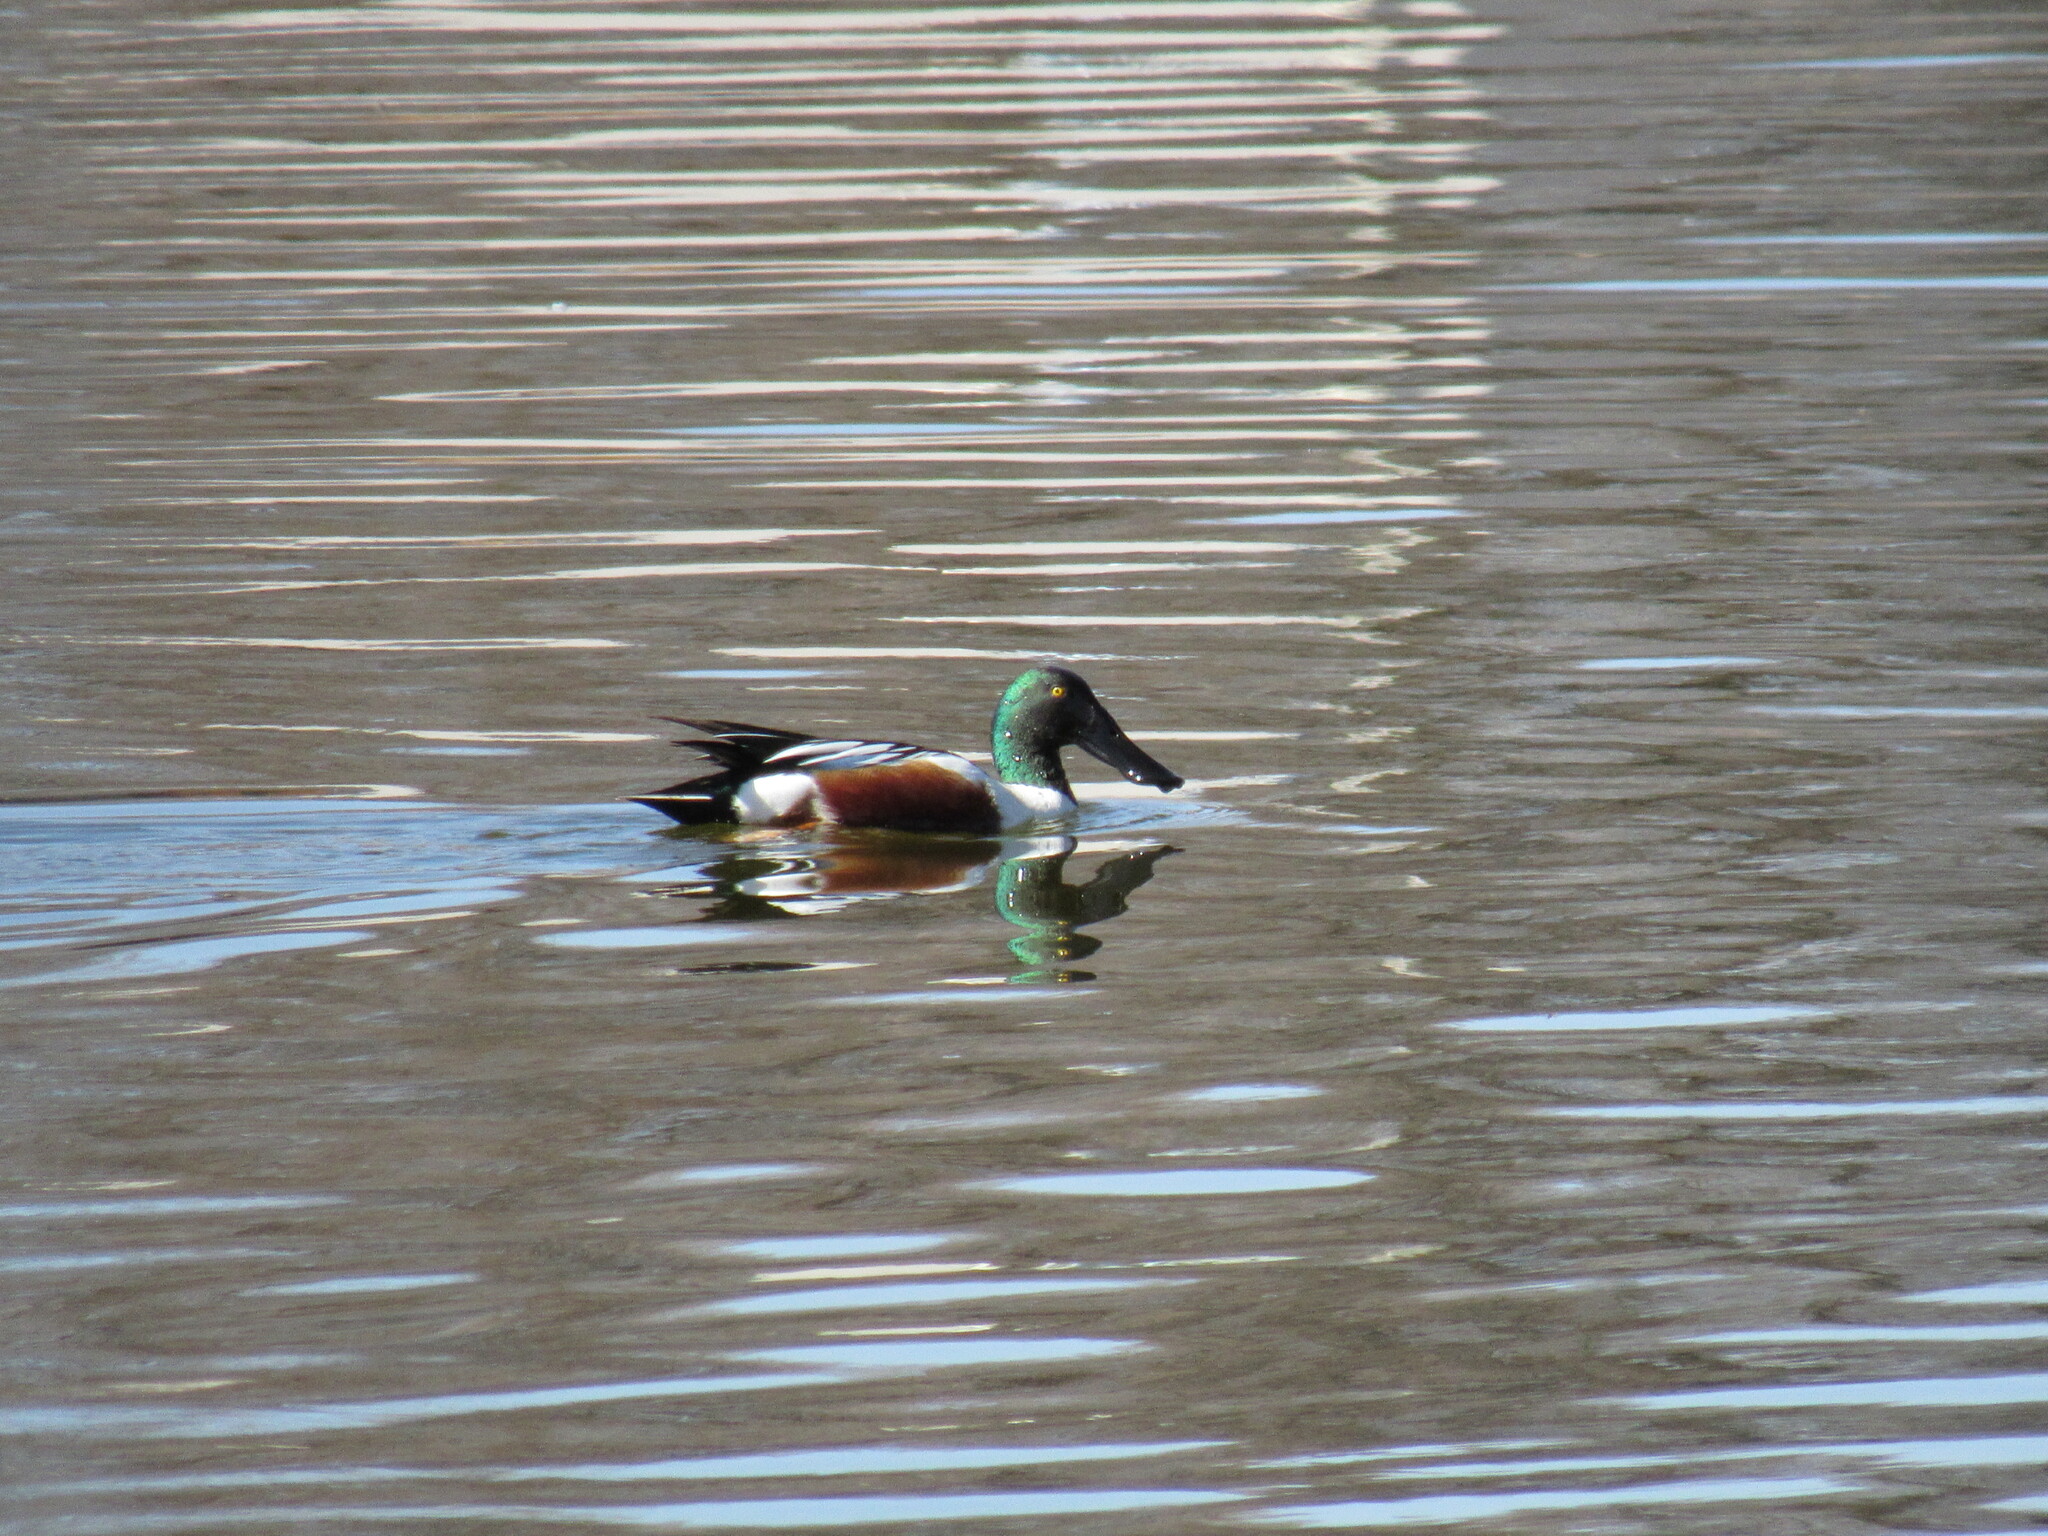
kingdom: Animalia
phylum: Chordata
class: Aves
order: Anseriformes
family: Anatidae
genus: Spatula
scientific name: Spatula clypeata
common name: Northern shoveler
